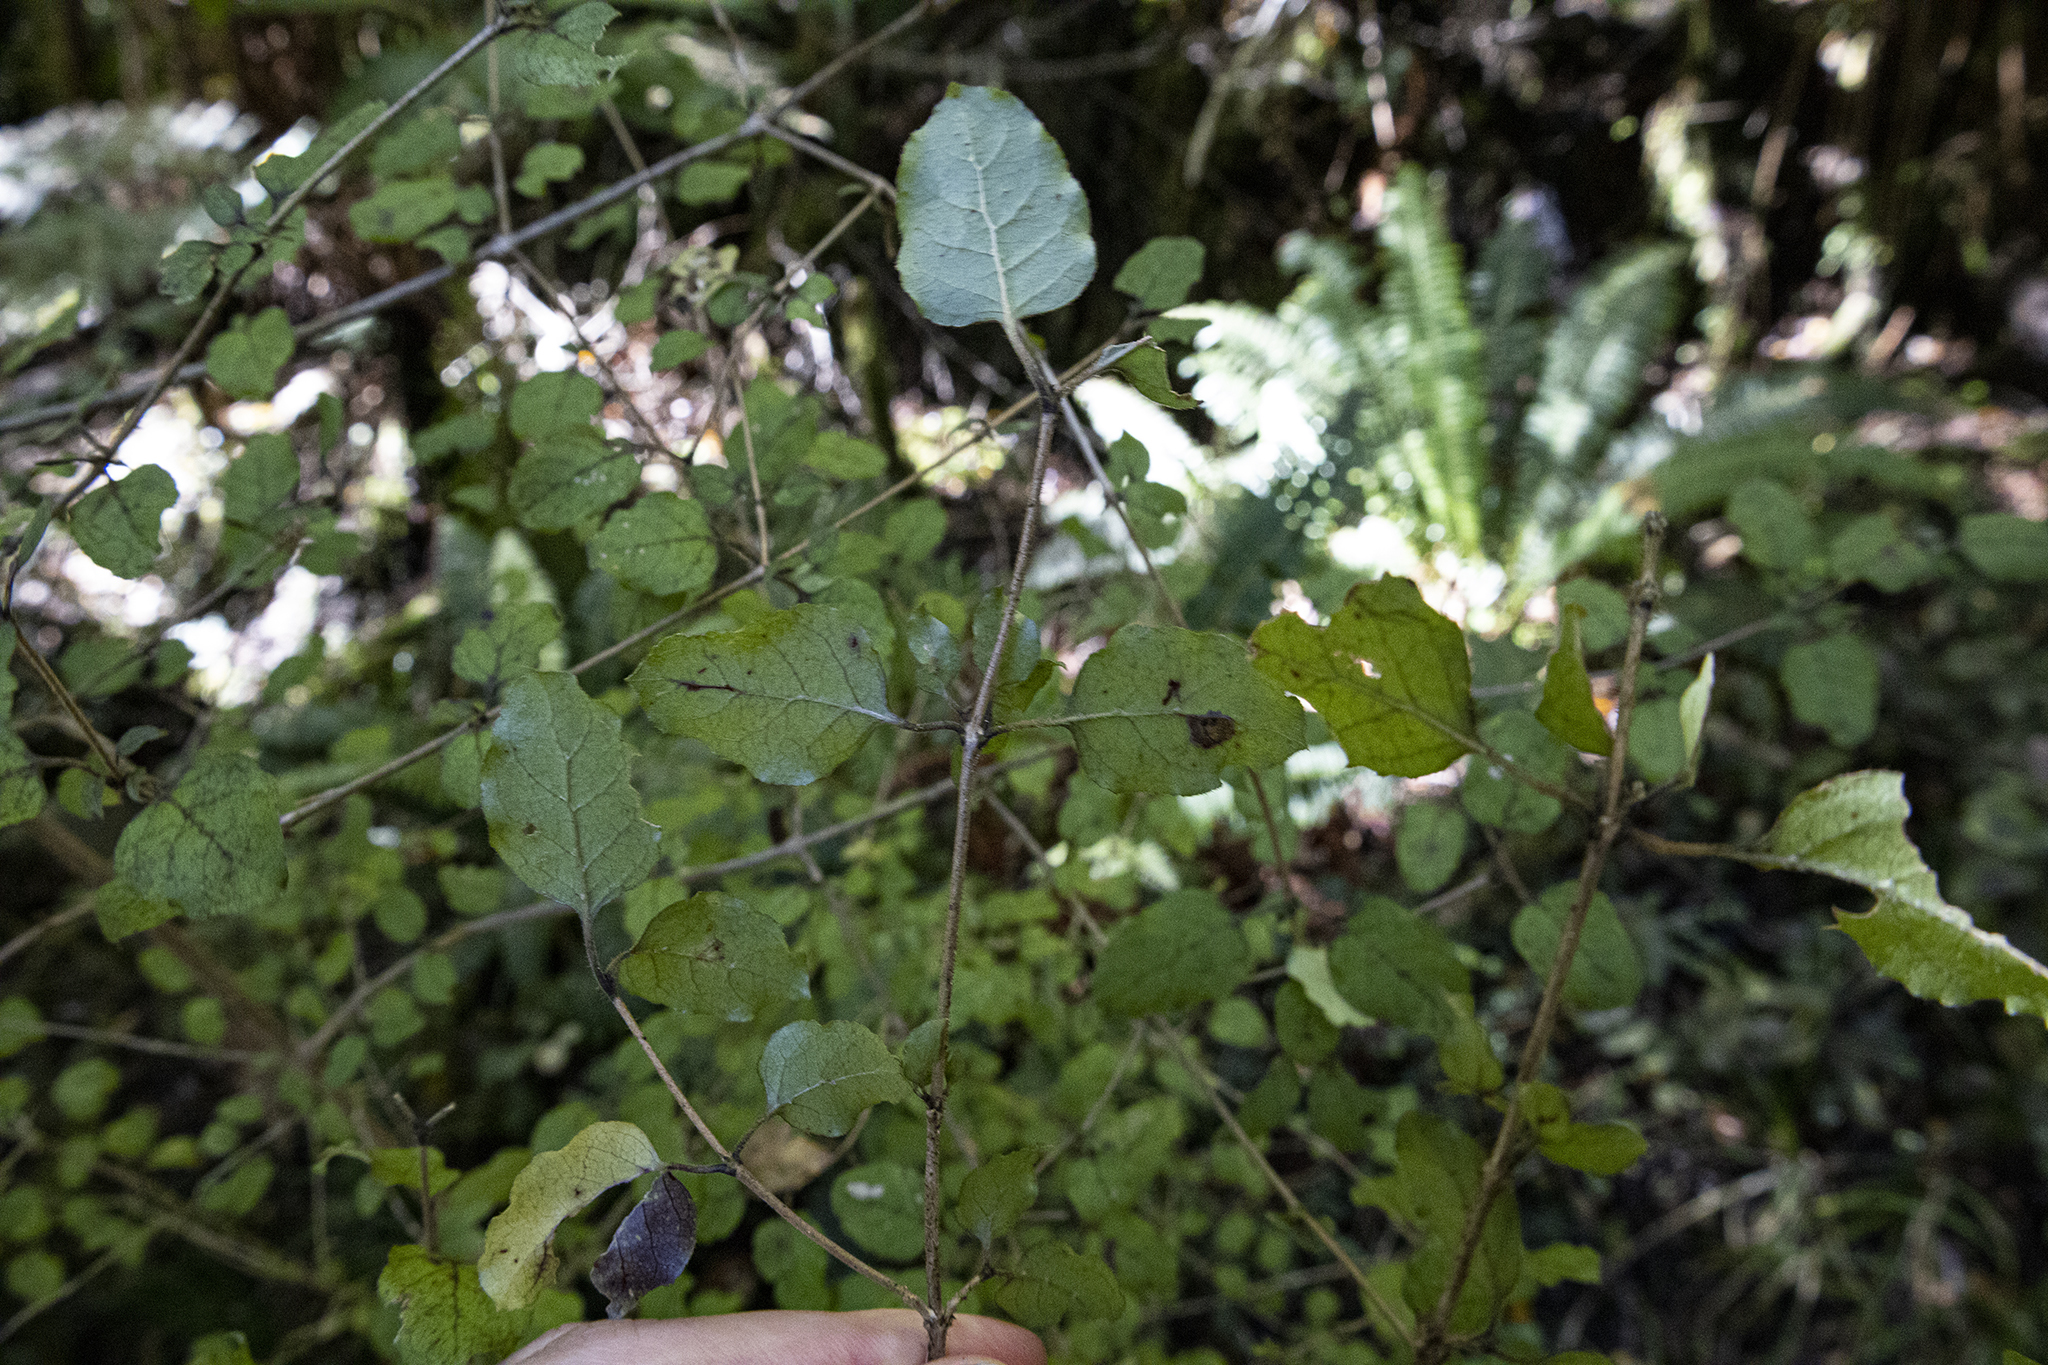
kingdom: Plantae
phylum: Tracheophyta
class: Magnoliopsida
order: Gentianales
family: Rubiaceae
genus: Coprosma
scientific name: Coprosma rotundifolia
